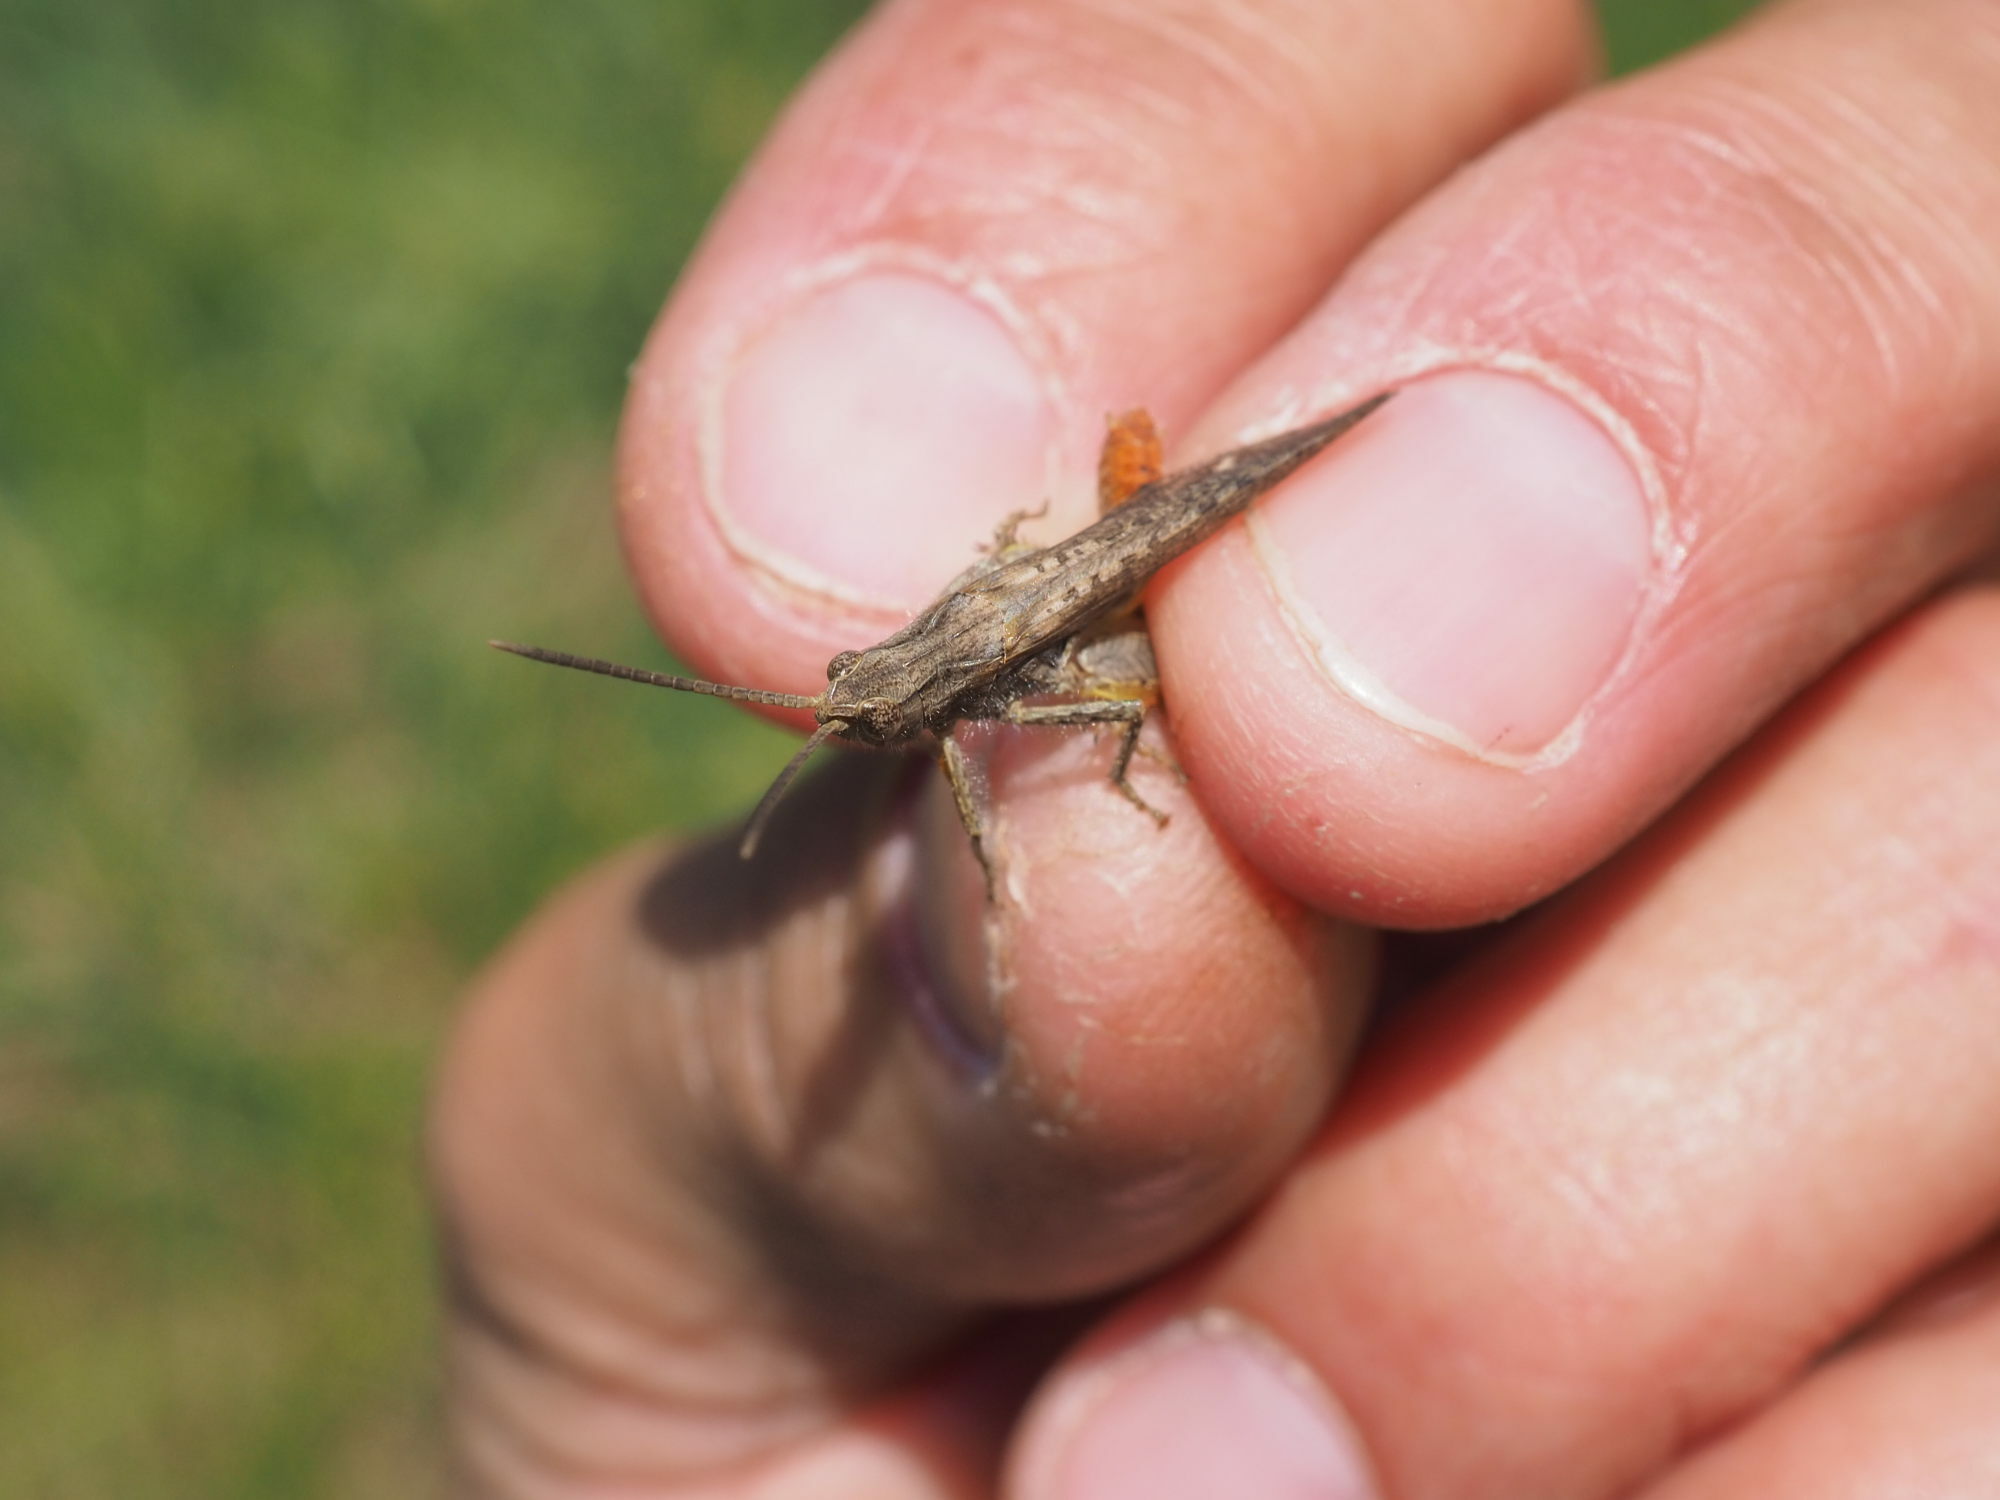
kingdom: Animalia
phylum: Arthropoda
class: Insecta
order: Orthoptera
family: Acrididae
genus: Chorthippus
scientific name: Chorthippus brunneus
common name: Field grasshopper
